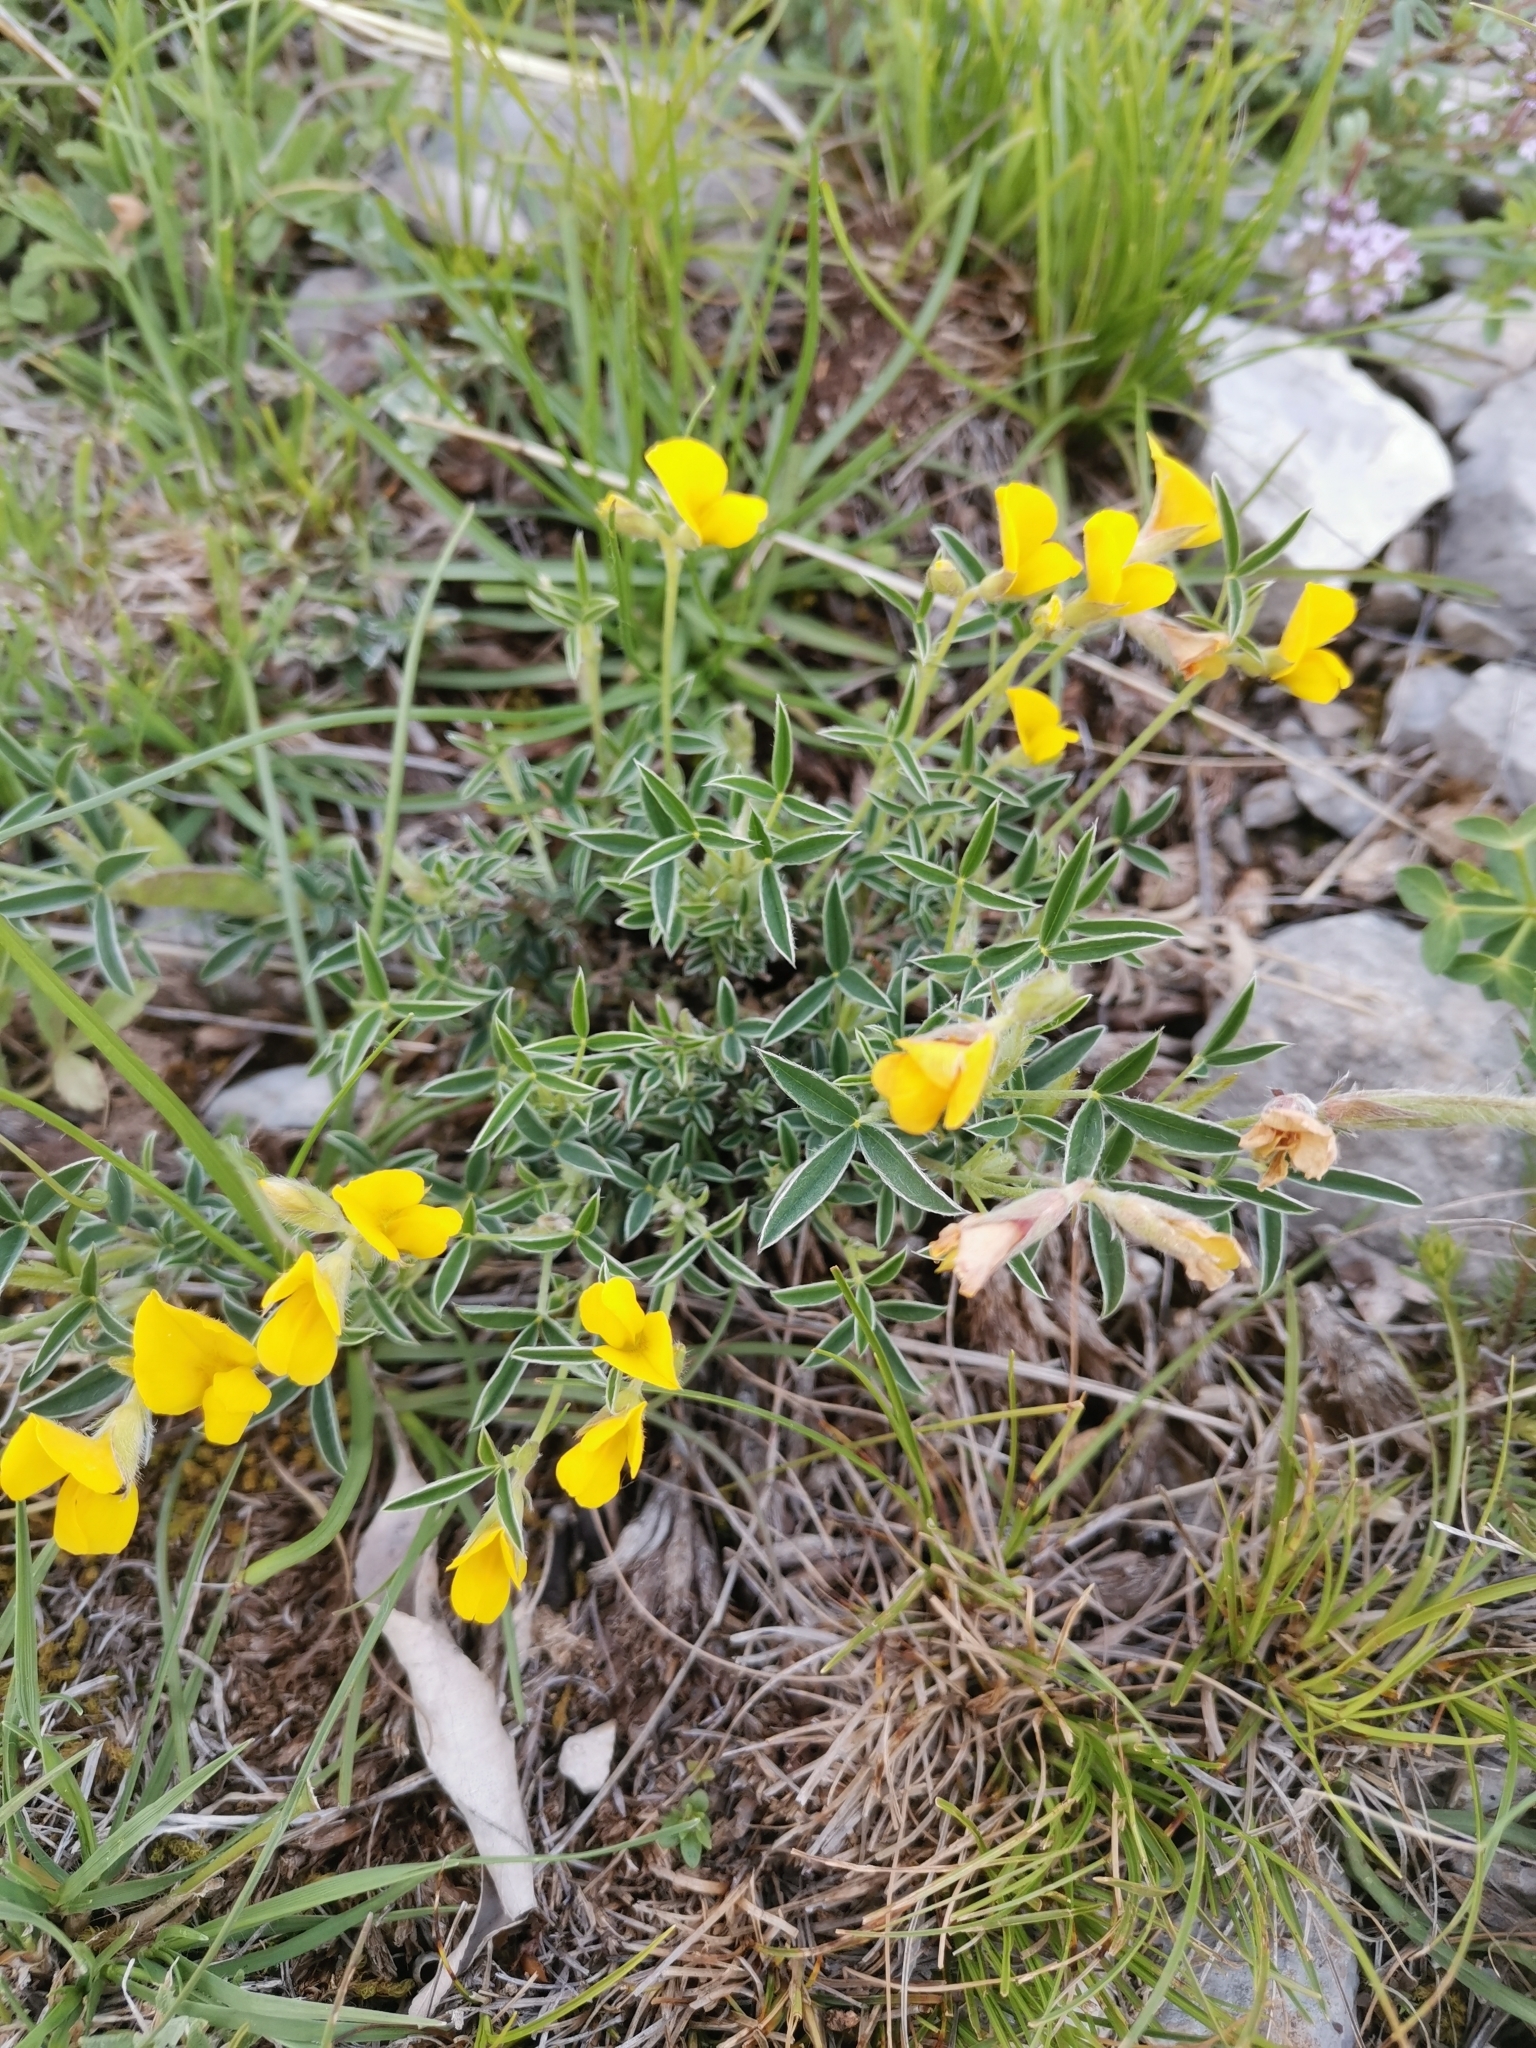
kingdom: Plantae
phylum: Tracheophyta
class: Magnoliopsida
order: Fabales
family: Fabaceae
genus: Argyrolobium
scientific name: Argyrolobium zanonii
